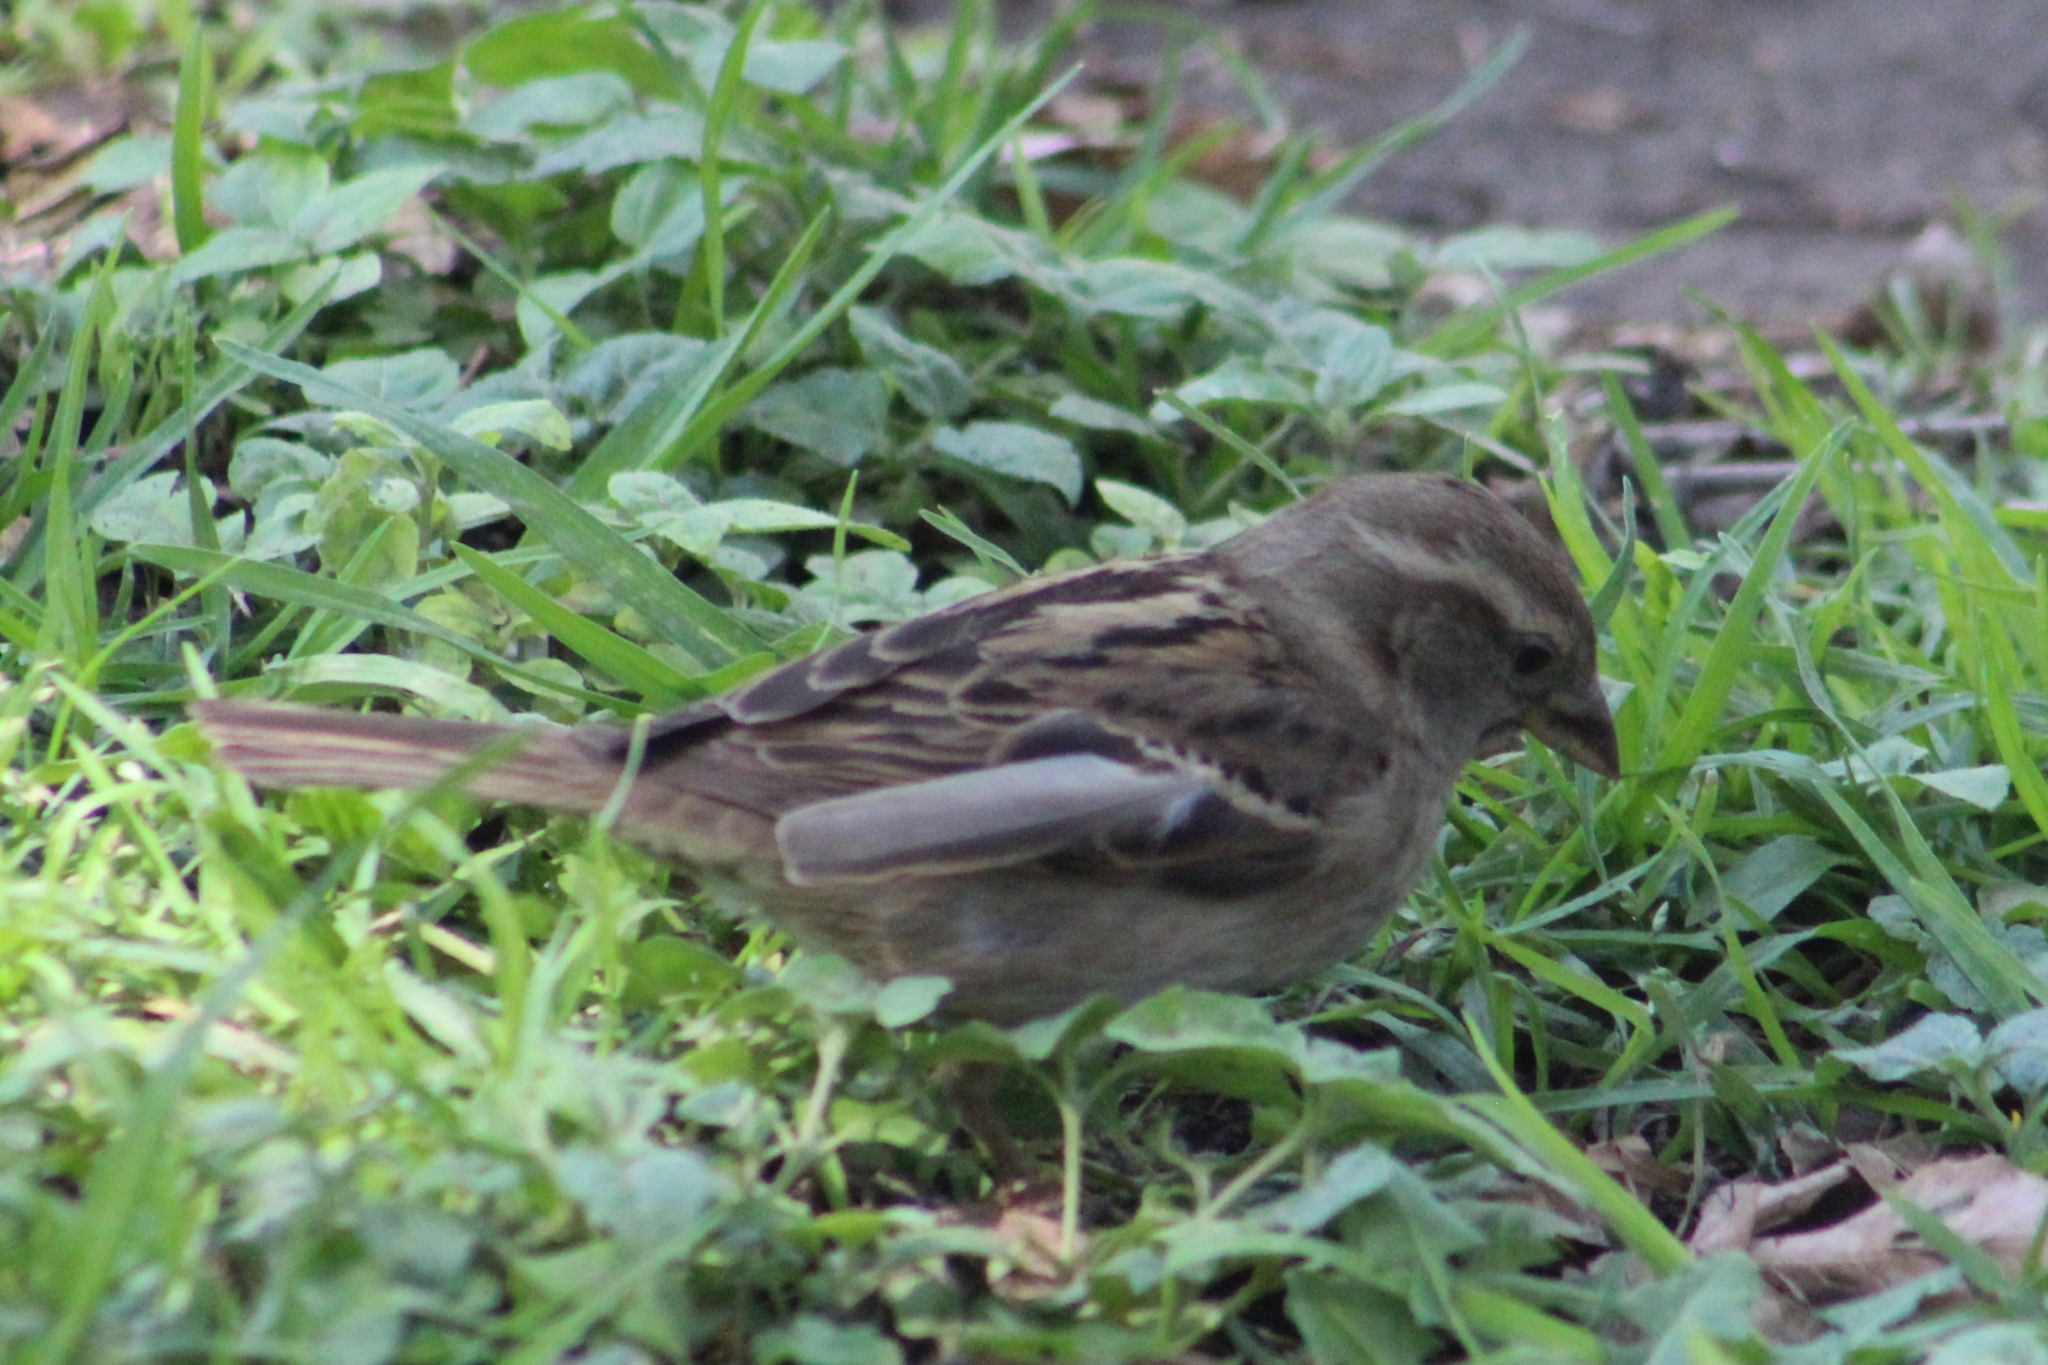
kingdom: Animalia
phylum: Chordata
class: Aves
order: Passeriformes
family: Passeridae
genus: Passer
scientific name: Passer domesticus
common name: House sparrow
